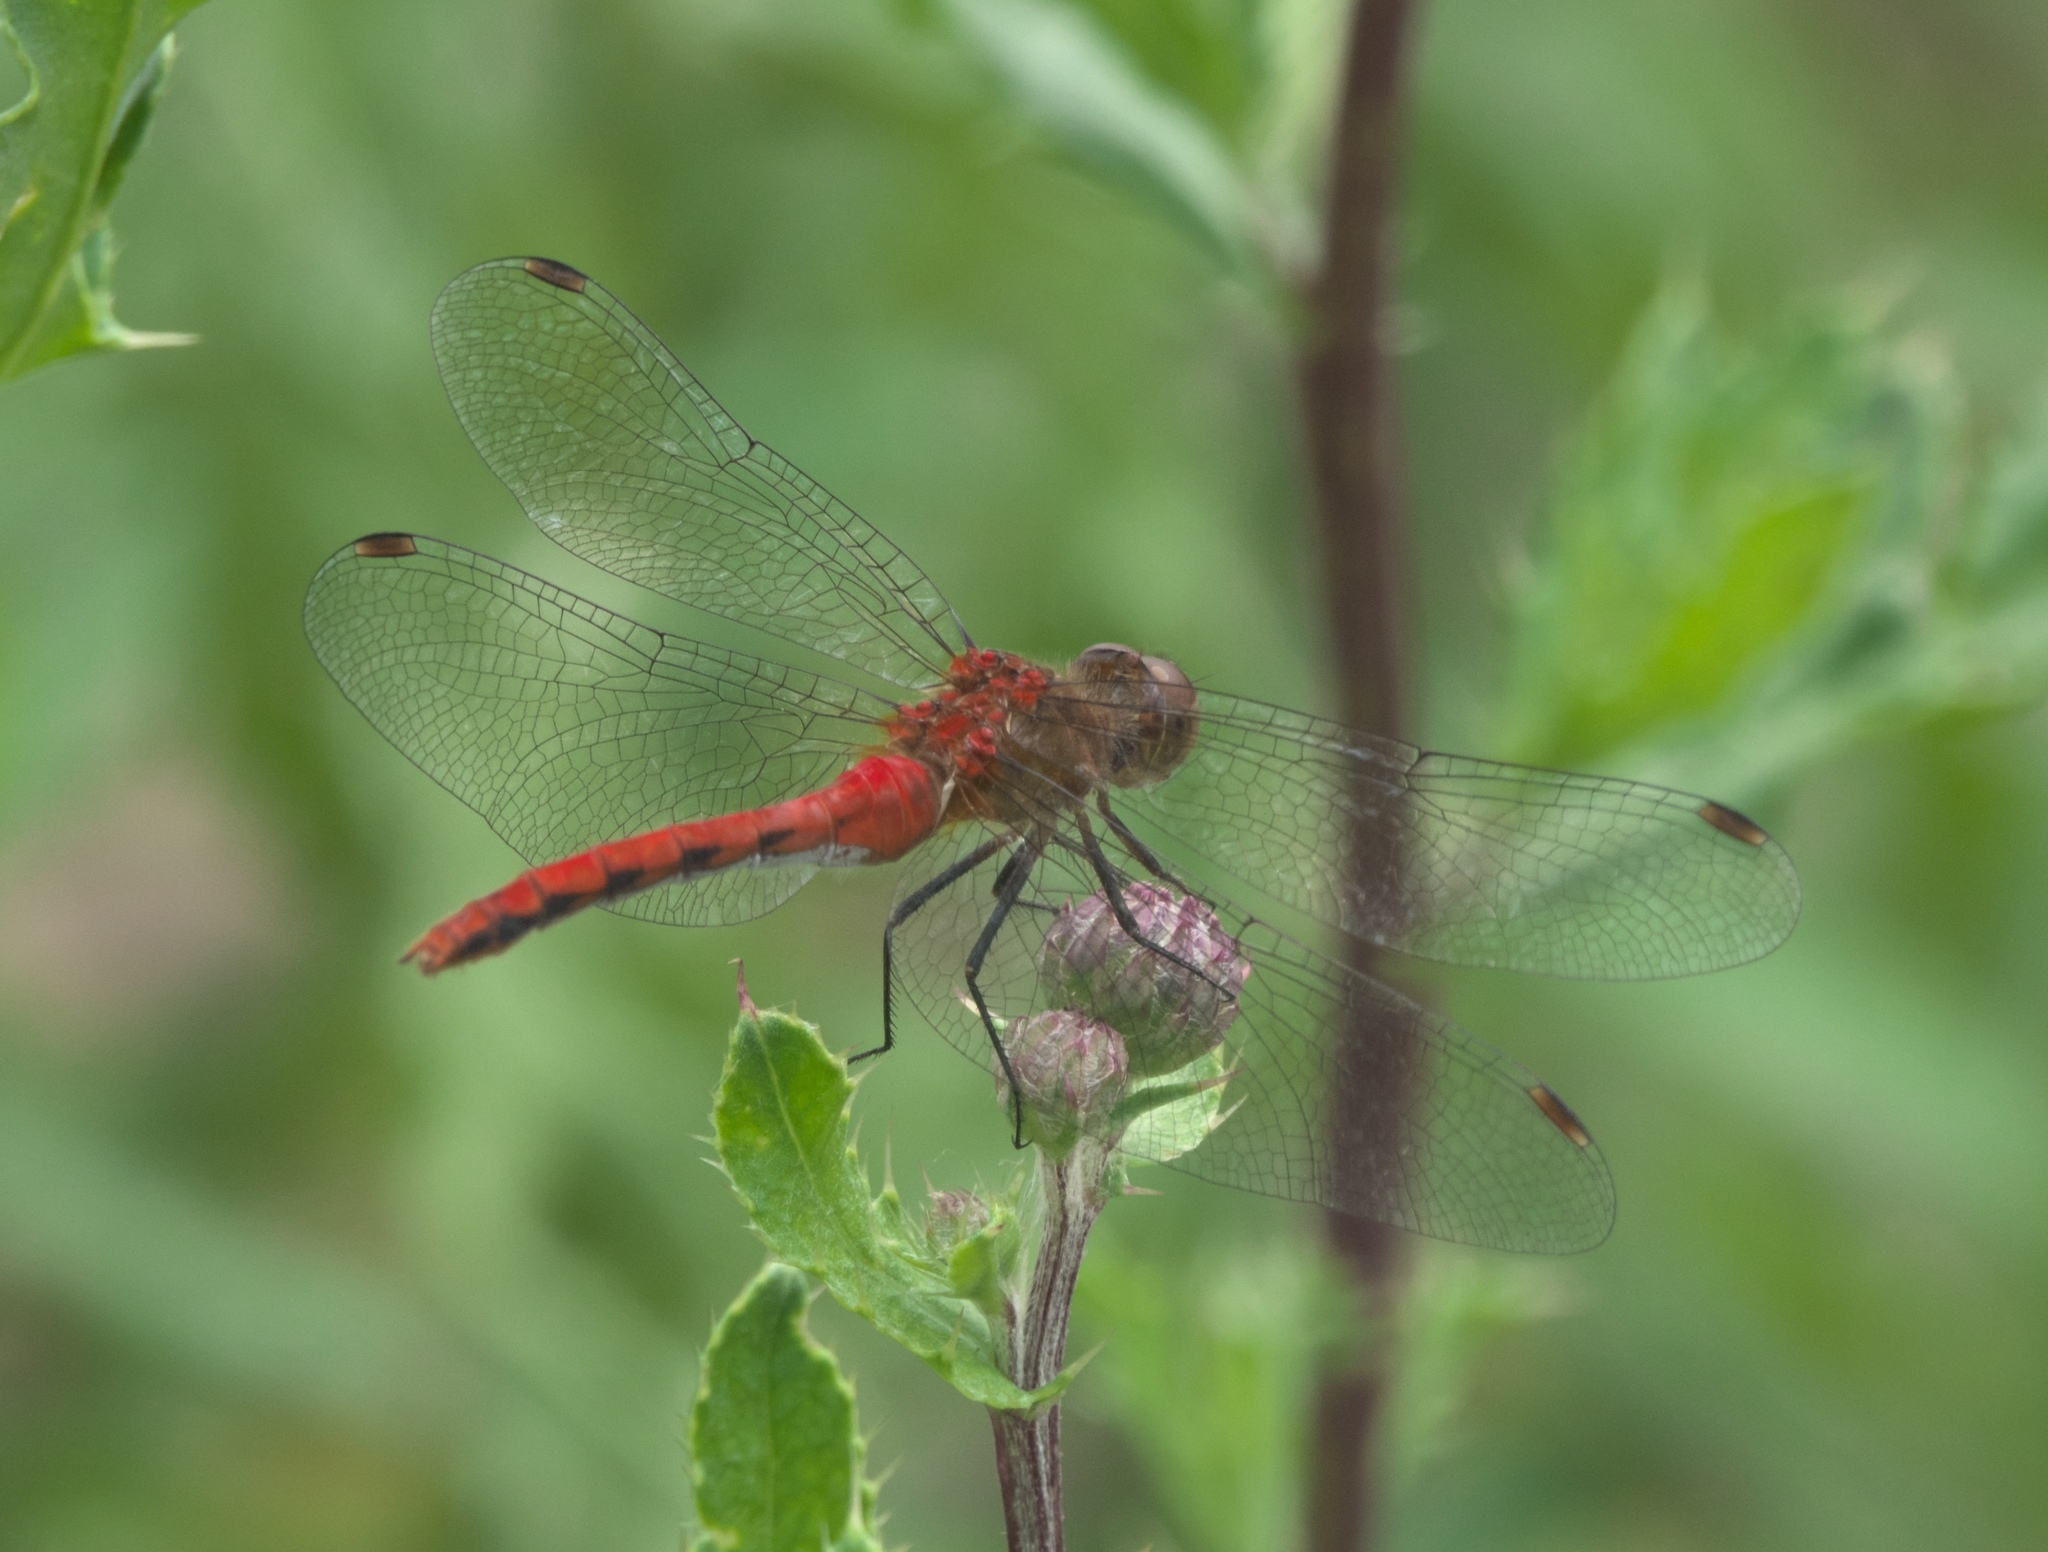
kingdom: Animalia
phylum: Arthropoda
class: Insecta
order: Odonata
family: Libellulidae
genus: Sympetrum
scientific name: Sympetrum
